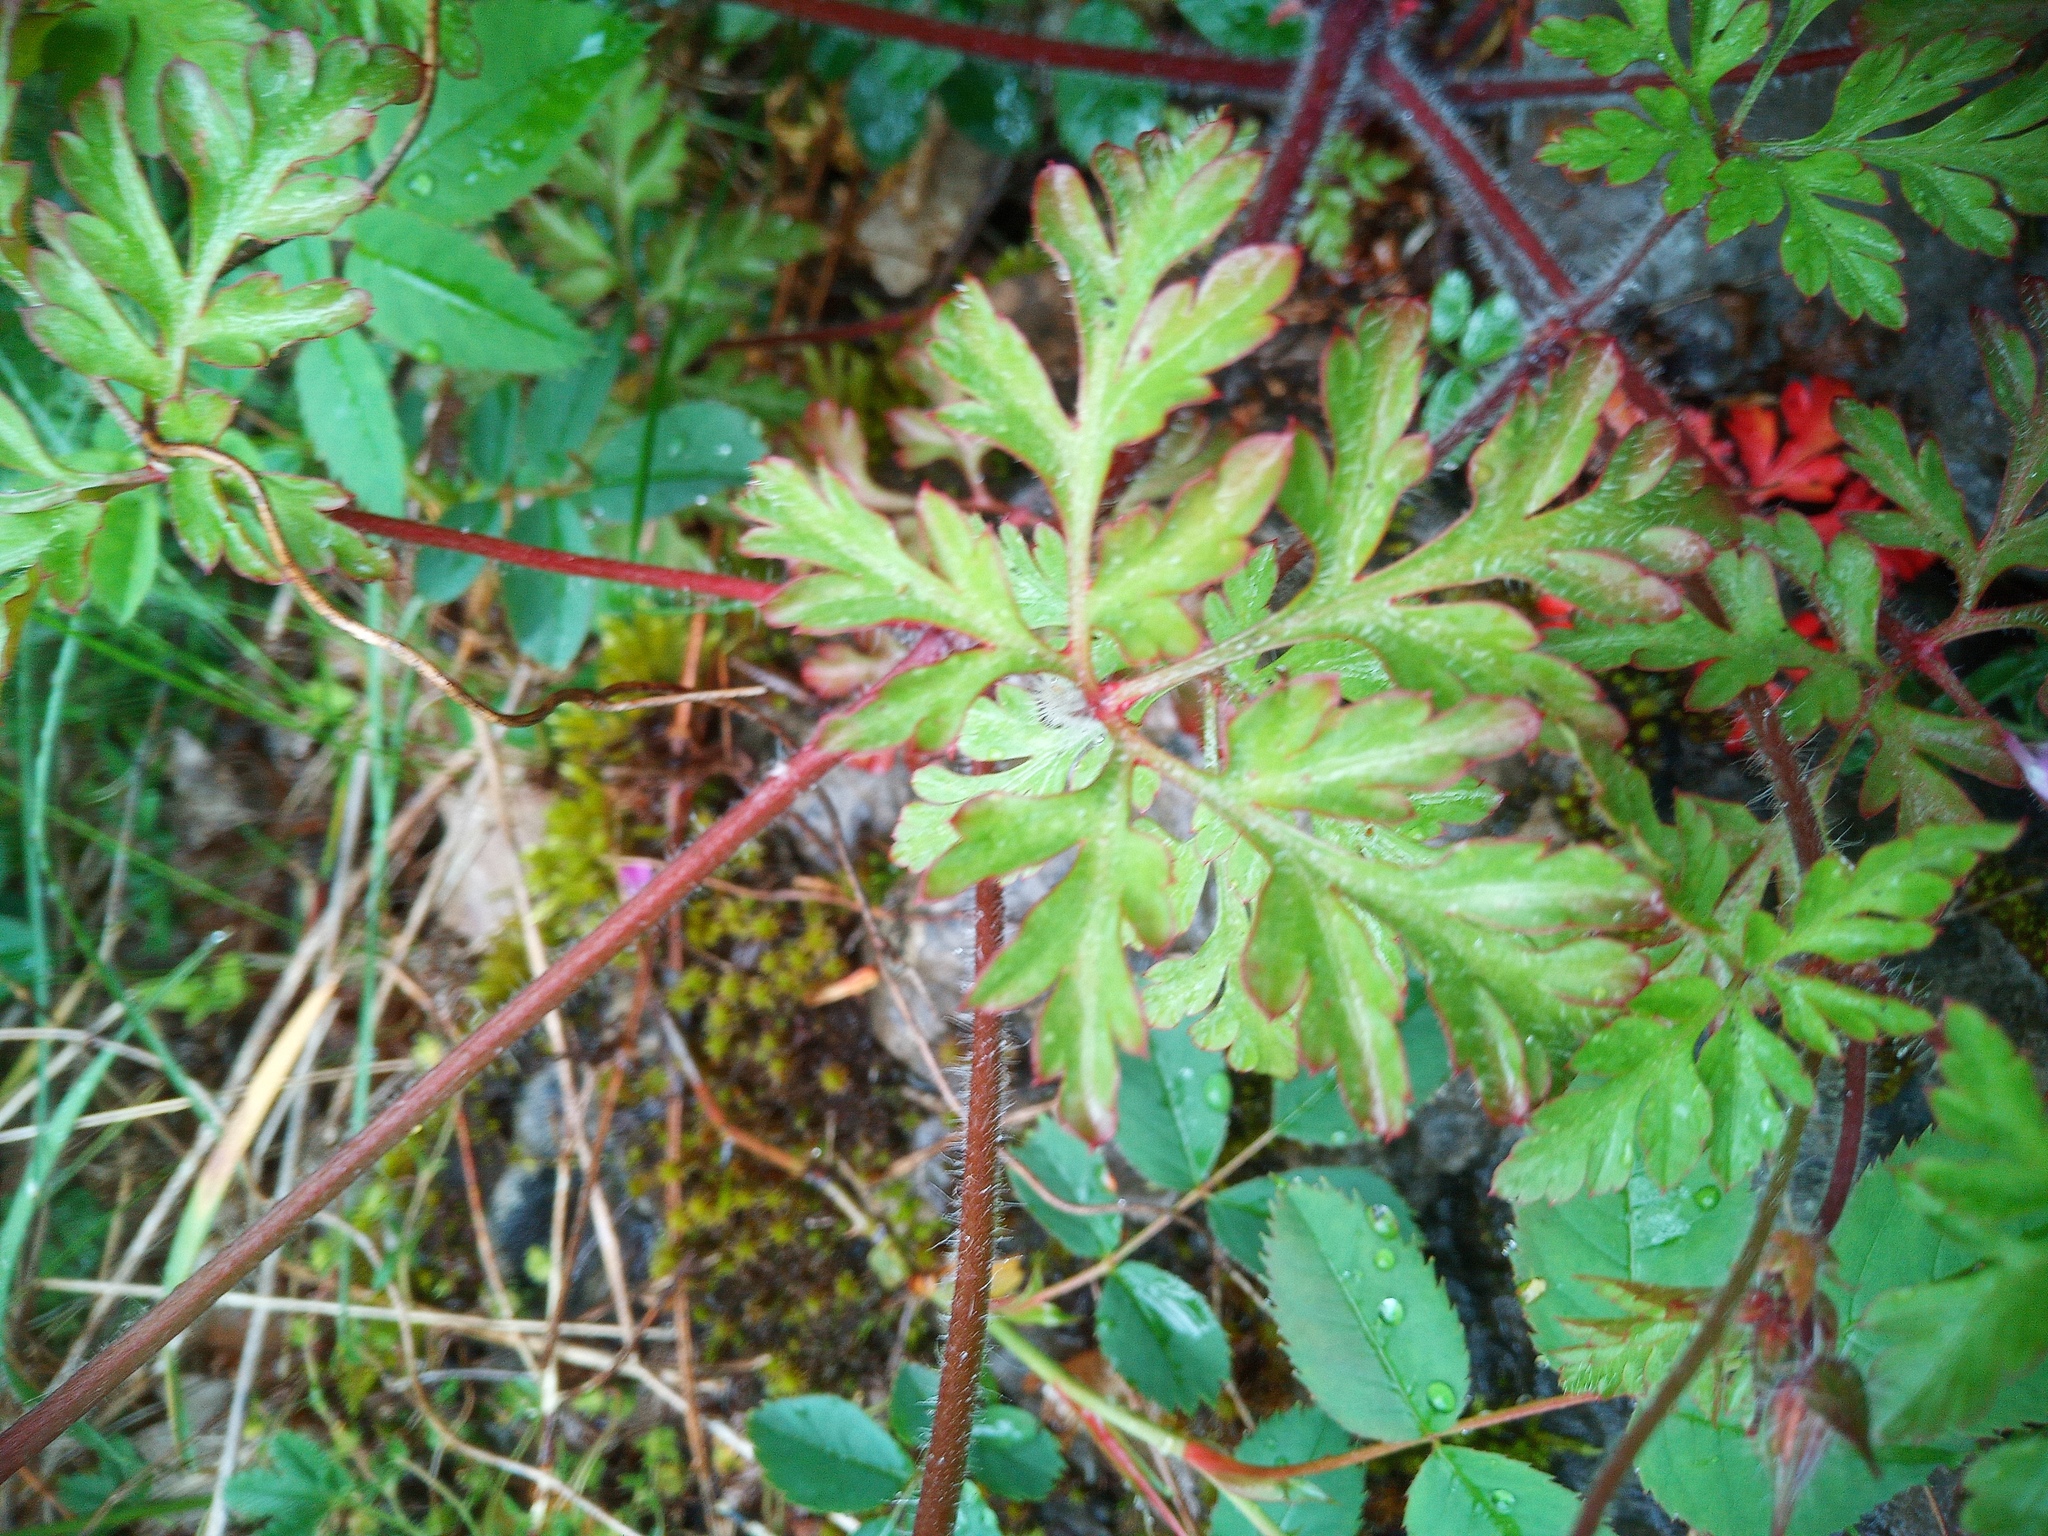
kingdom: Plantae
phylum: Tracheophyta
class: Magnoliopsida
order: Geraniales
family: Geraniaceae
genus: Geranium
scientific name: Geranium robertianum
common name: Herb-robert
